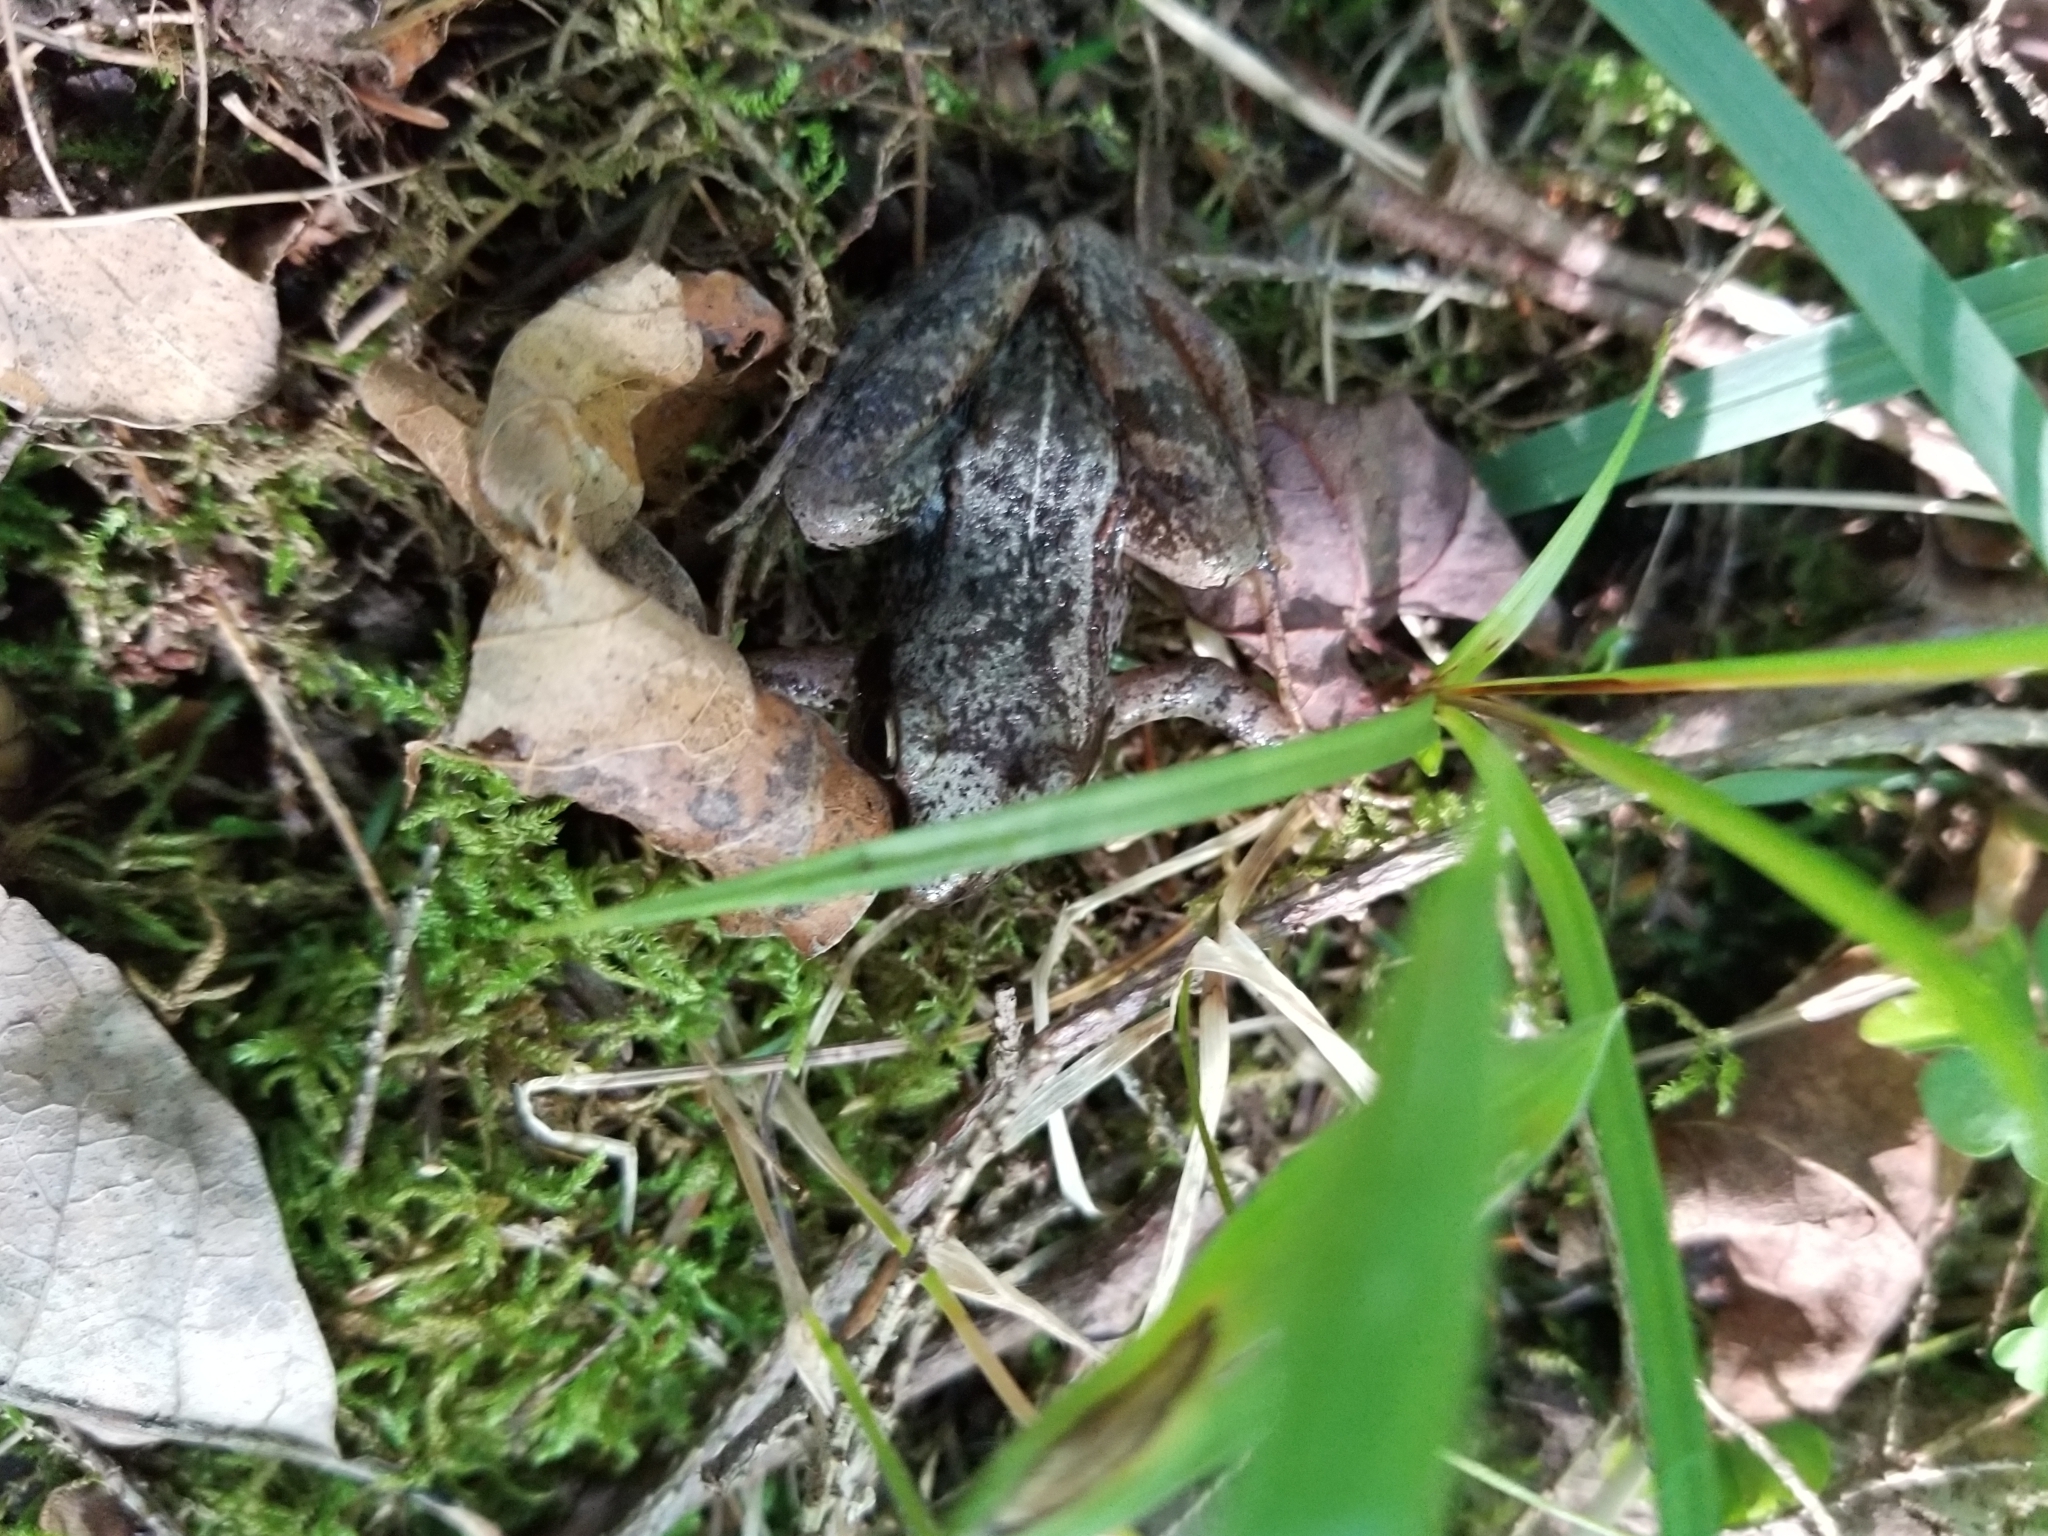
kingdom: Animalia
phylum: Chordata
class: Amphibia
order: Anura
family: Ranidae
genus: Lithobates
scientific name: Lithobates sylvaticus
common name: Wood frog
